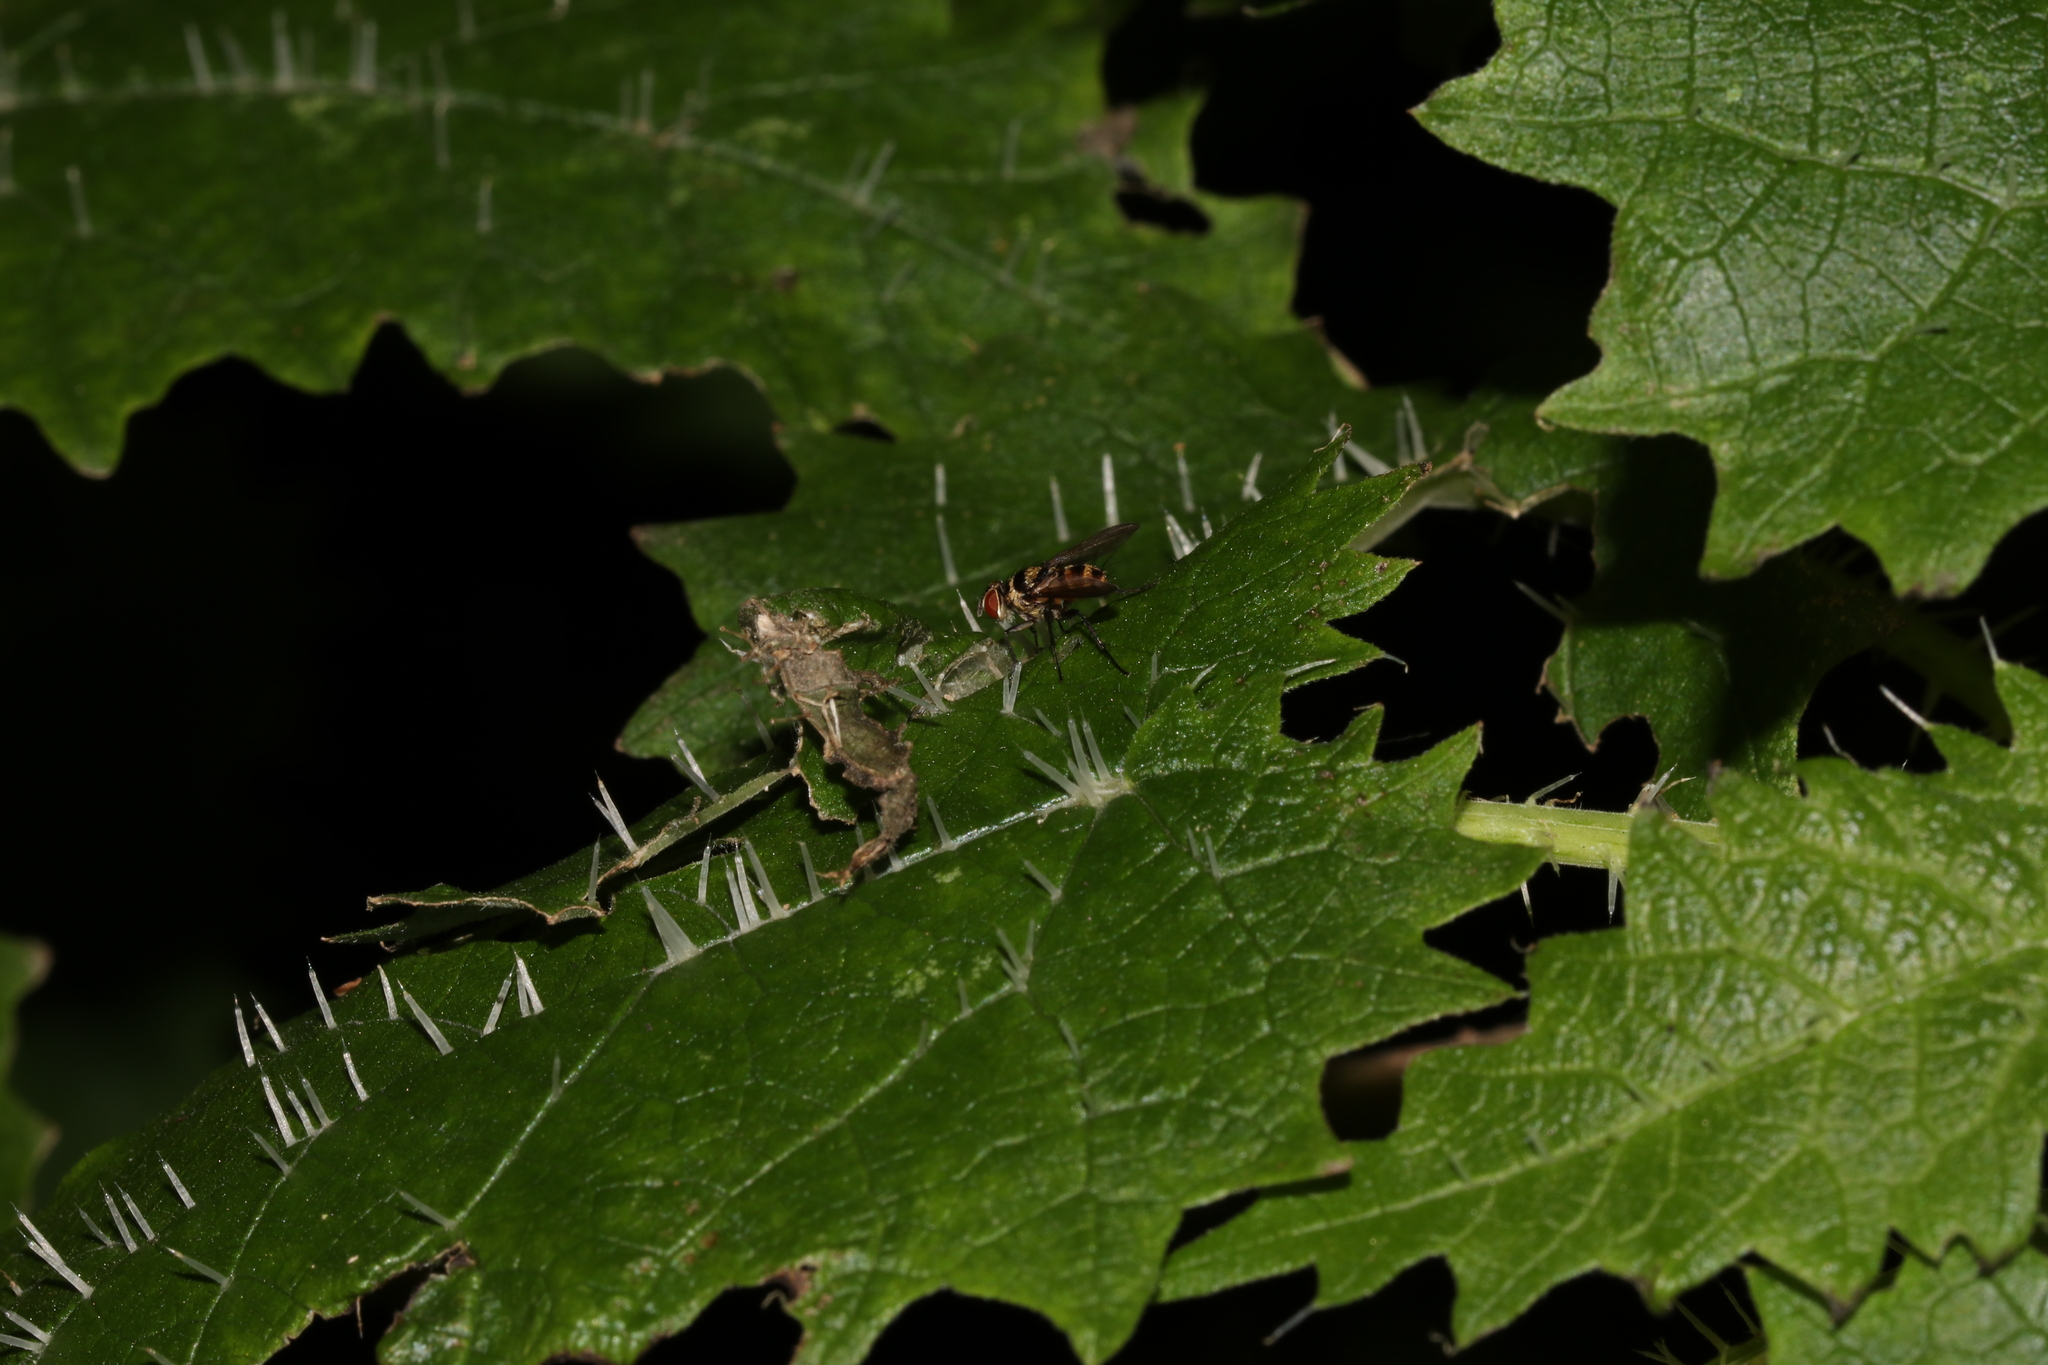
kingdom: Animalia
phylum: Arthropoda
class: Insecta
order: Diptera
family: Tachinidae
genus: Trigonospila
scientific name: Trigonospila brevifacies
